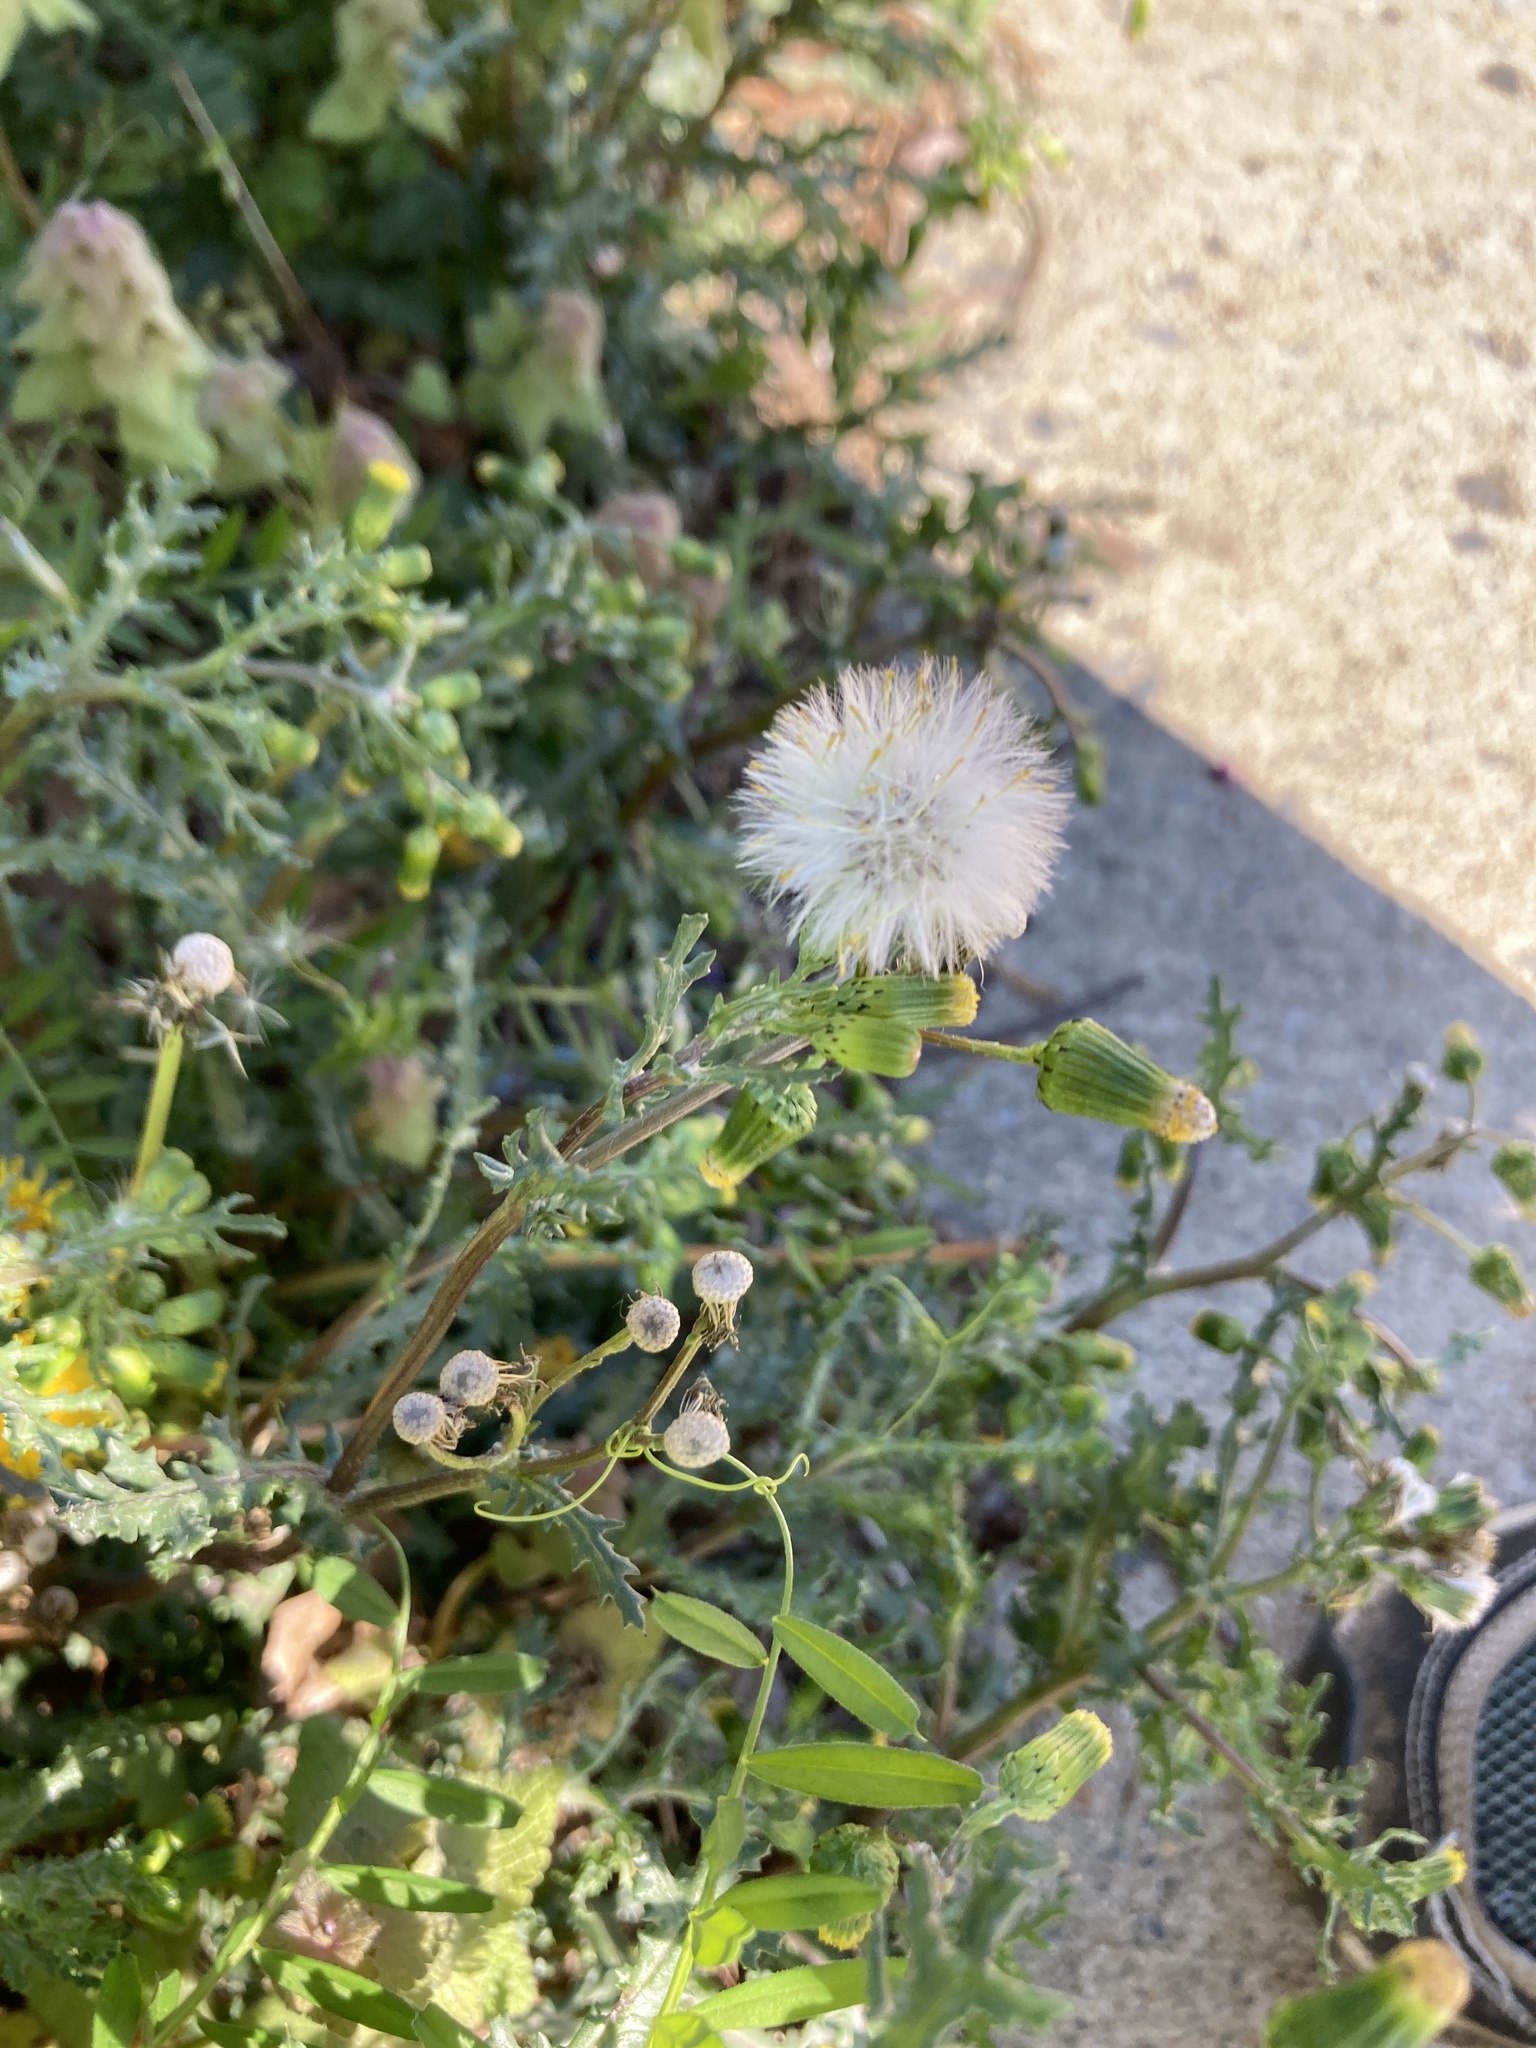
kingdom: Plantae
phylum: Tracheophyta
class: Magnoliopsida
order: Asterales
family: Asteraceae
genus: Senecio
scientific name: Senecio vulgaris
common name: Old-man-in-the-spring
